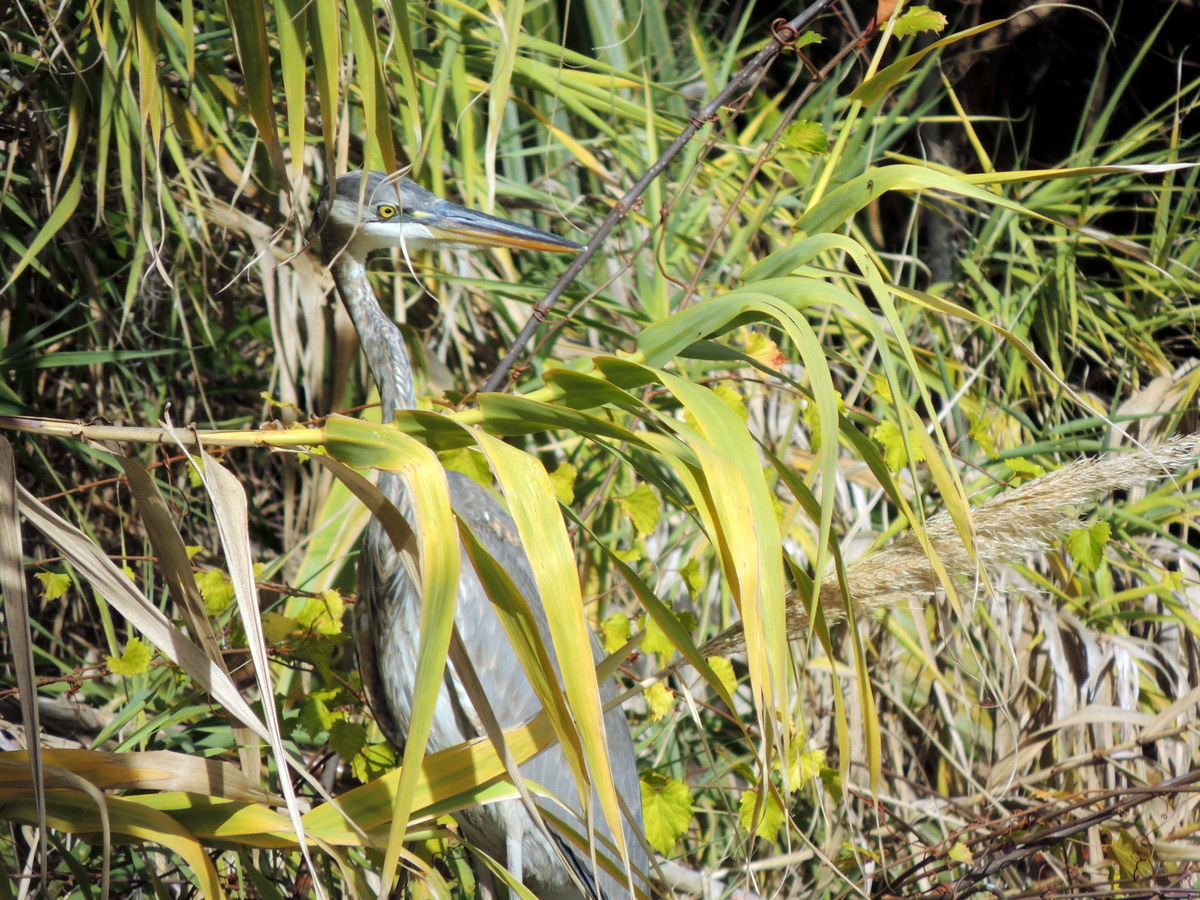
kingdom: Animalia
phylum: Chordata
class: Aves
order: Pelecaniformes
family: Ardeidae
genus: Ardea
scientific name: Ardea herodias
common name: Great blue heron
